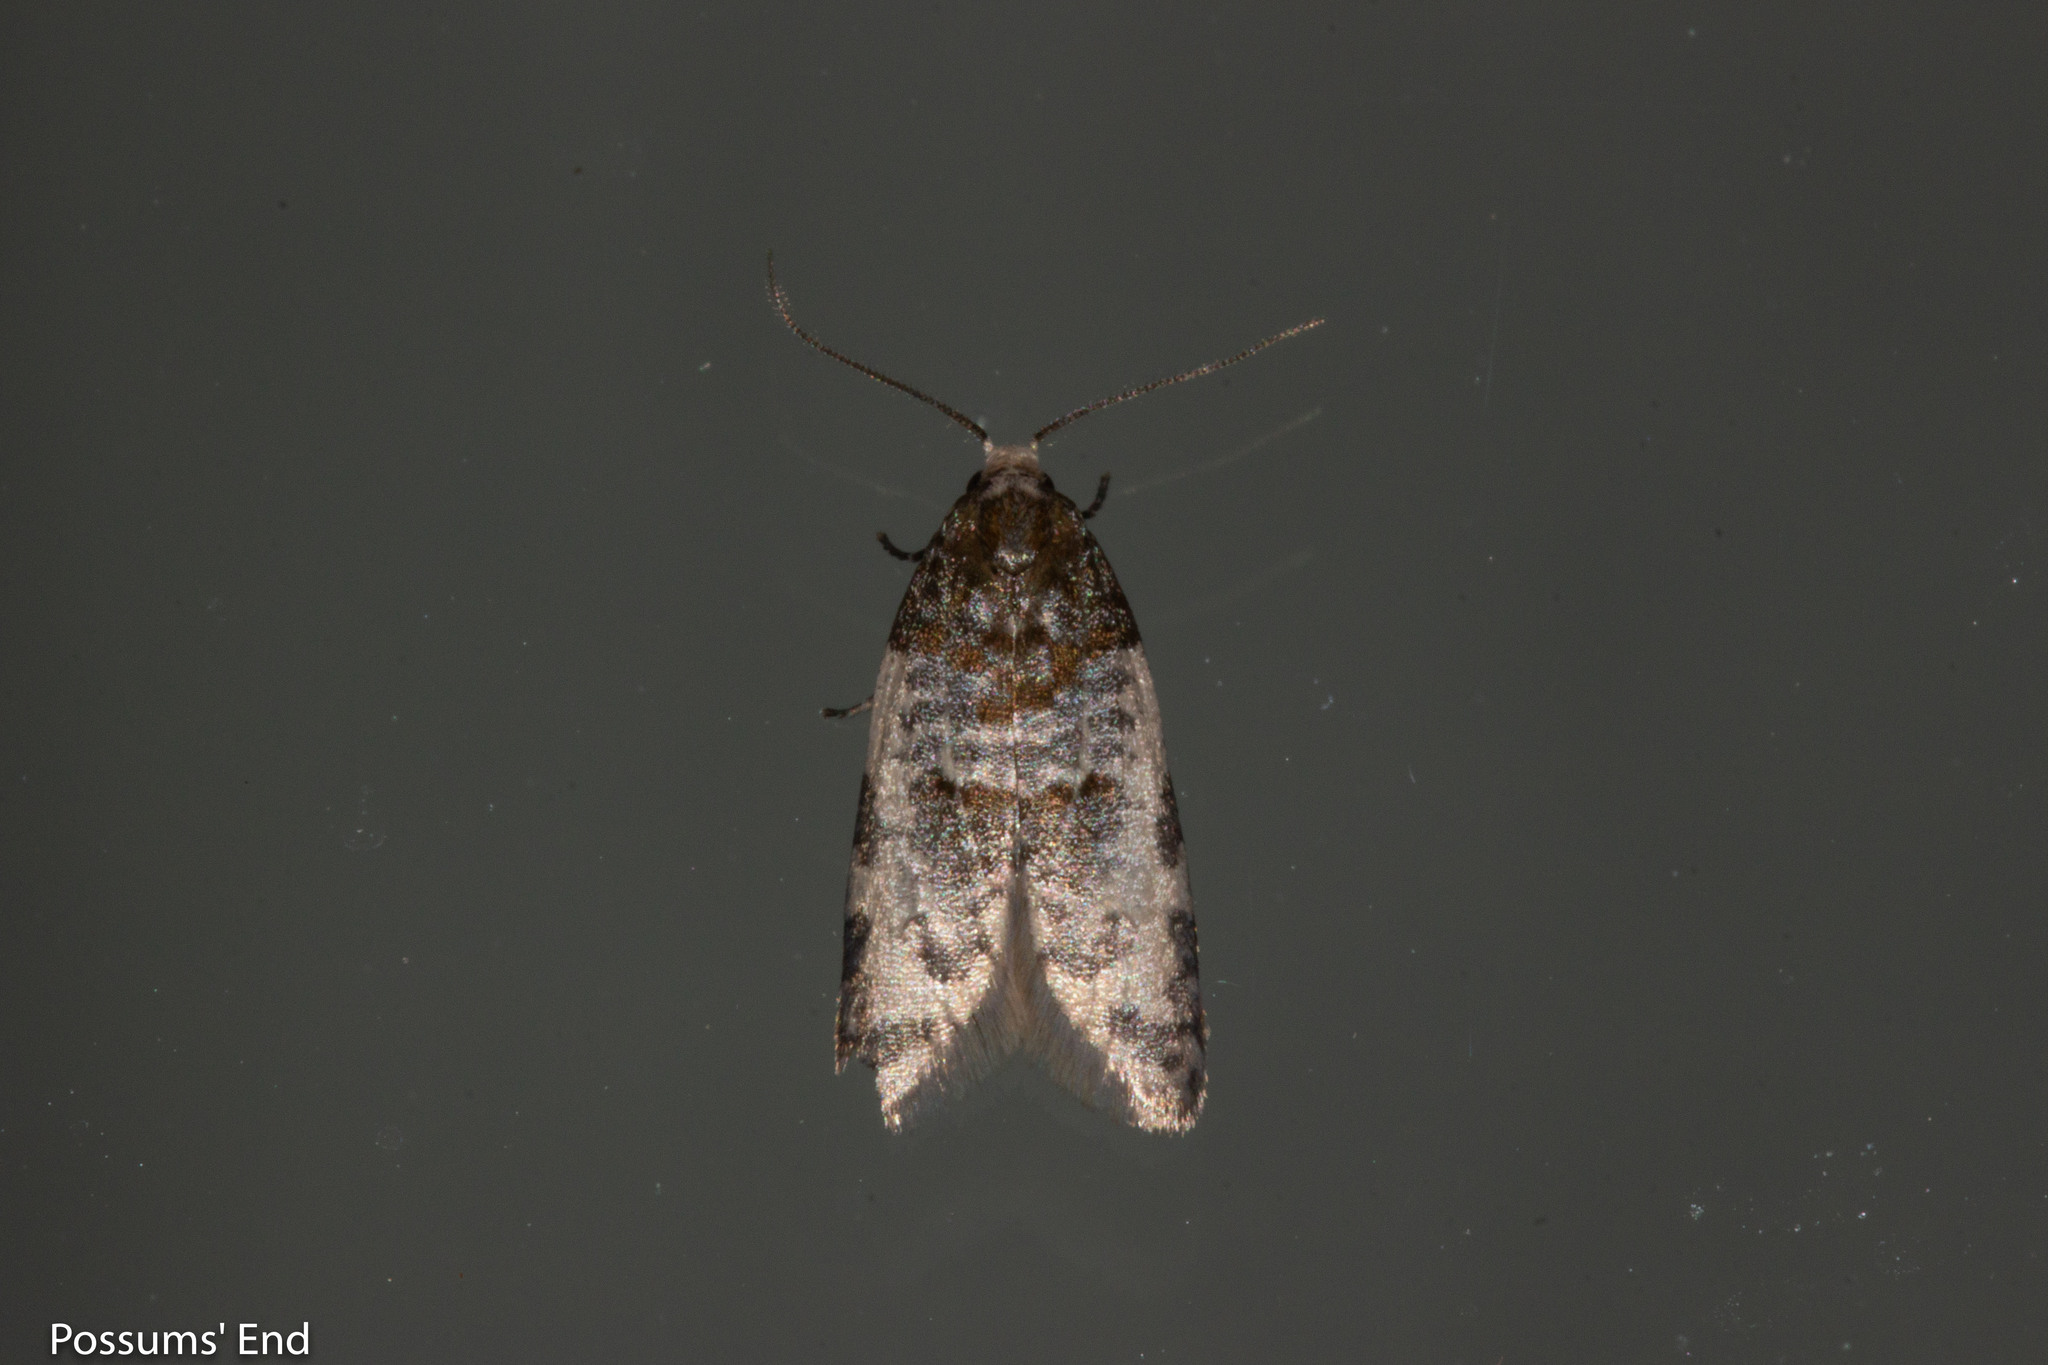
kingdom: Animalia
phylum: Arthropoda
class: Insecta
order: Lepidoptera
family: Tortricidae
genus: Prothelymna
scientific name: Prothelymna niphostrota
